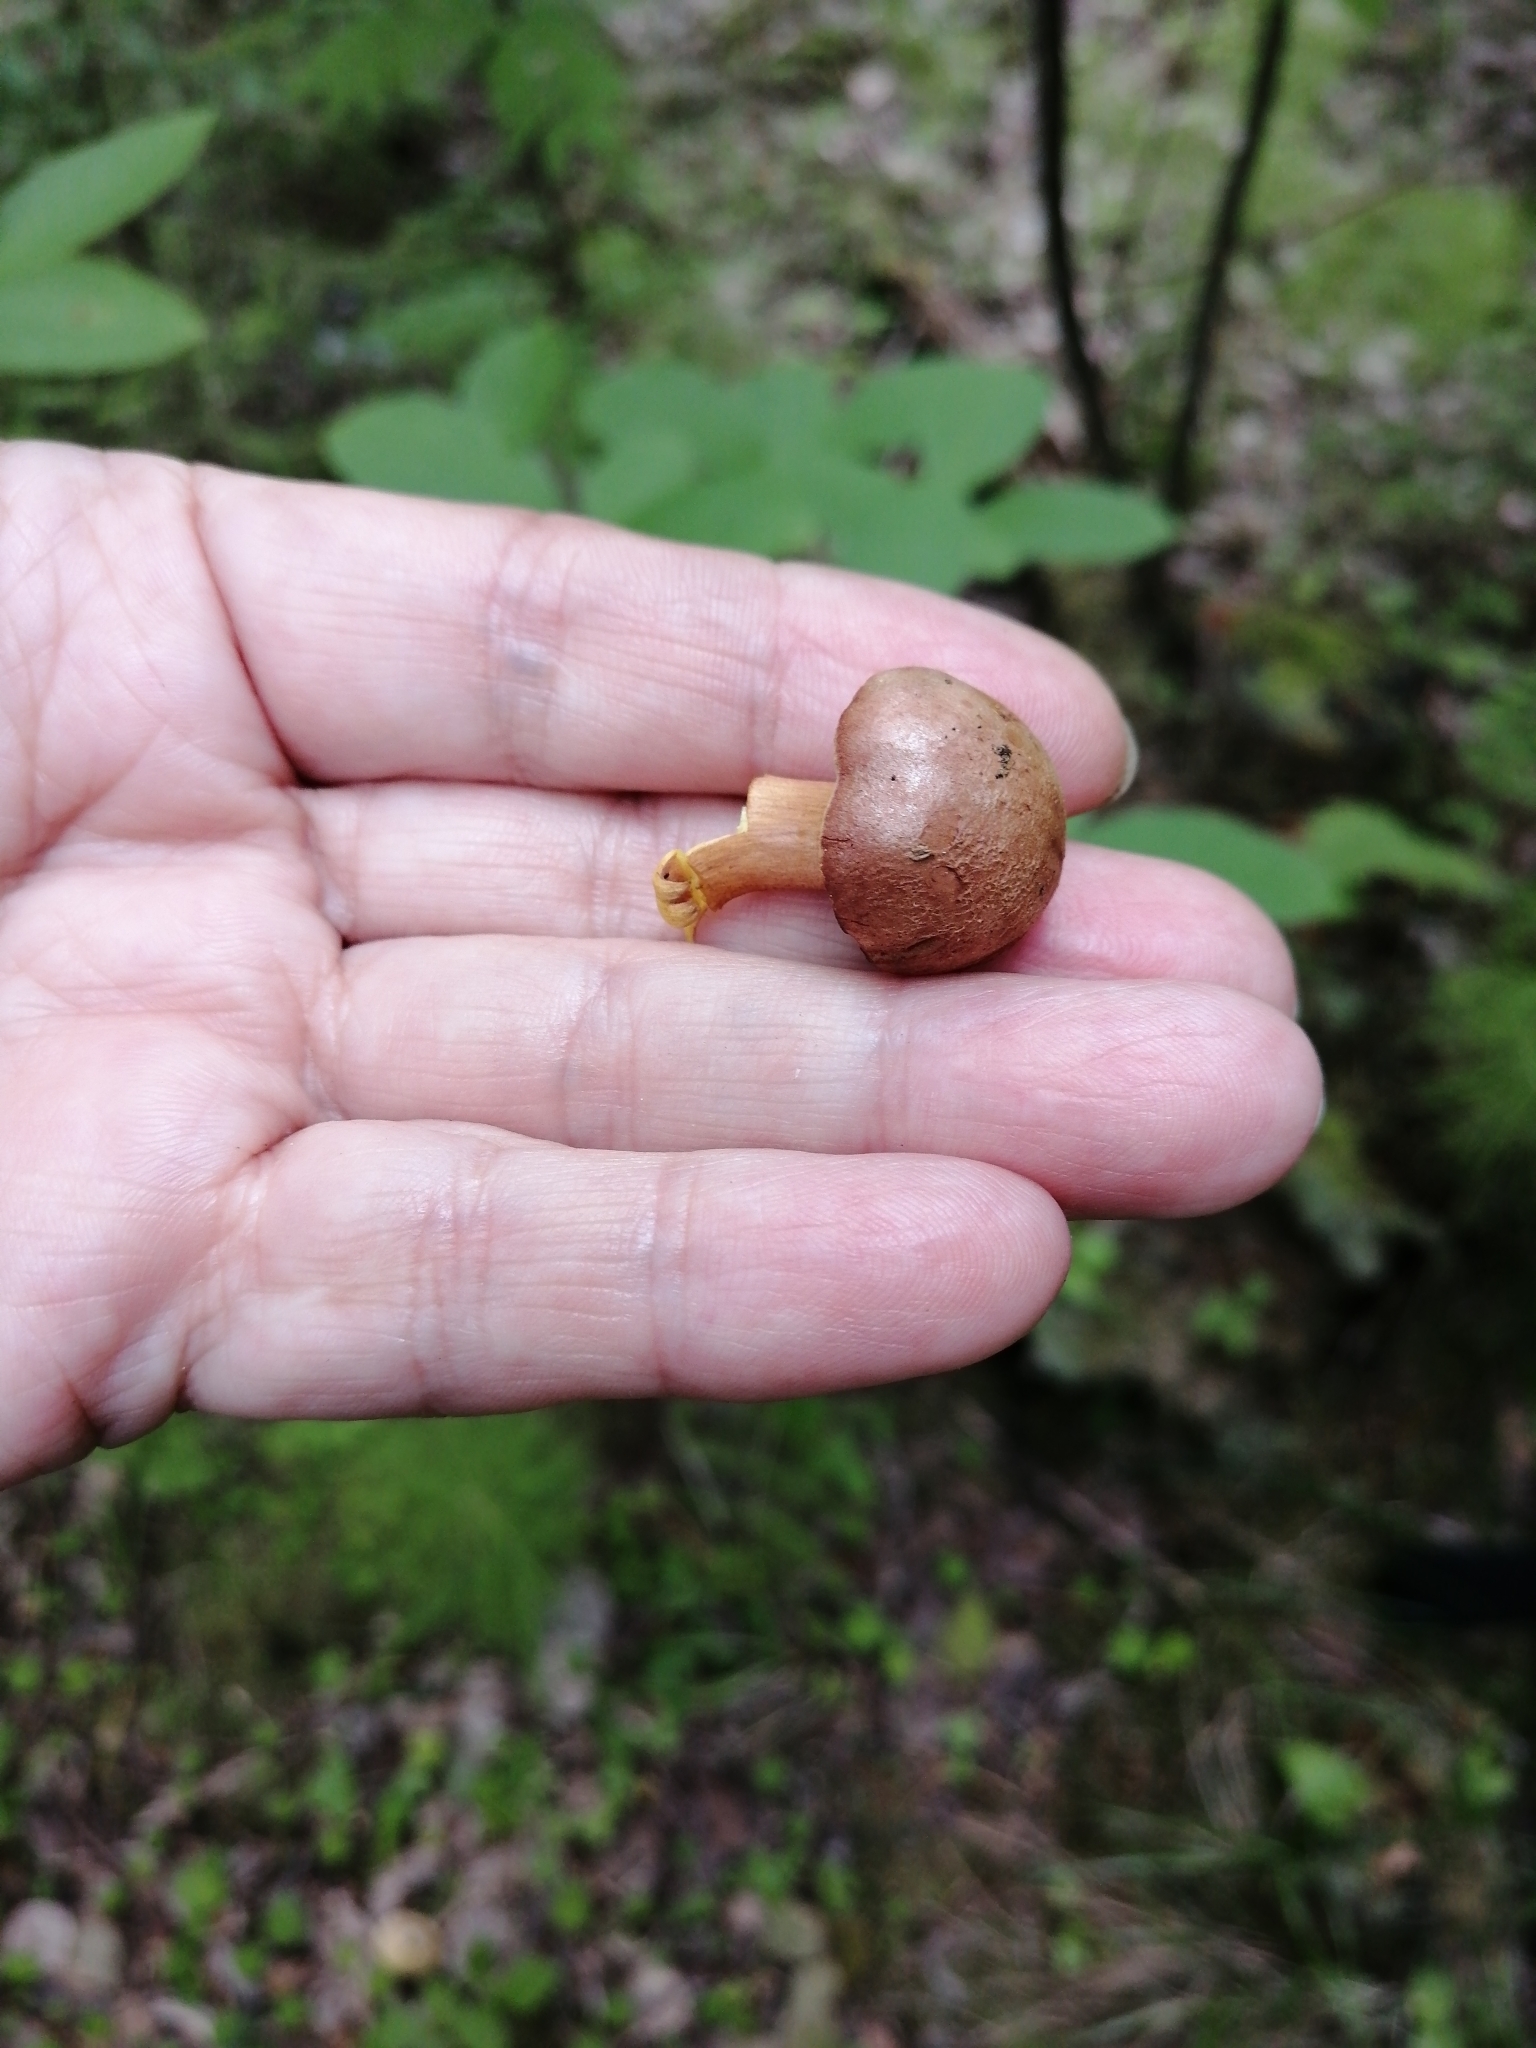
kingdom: Fungi
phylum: Basidiomycota
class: Agaricomycetes
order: Boletales
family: Boletaceae
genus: Chalciporus
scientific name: Chalciporus piperatus
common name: Peppery bolete
